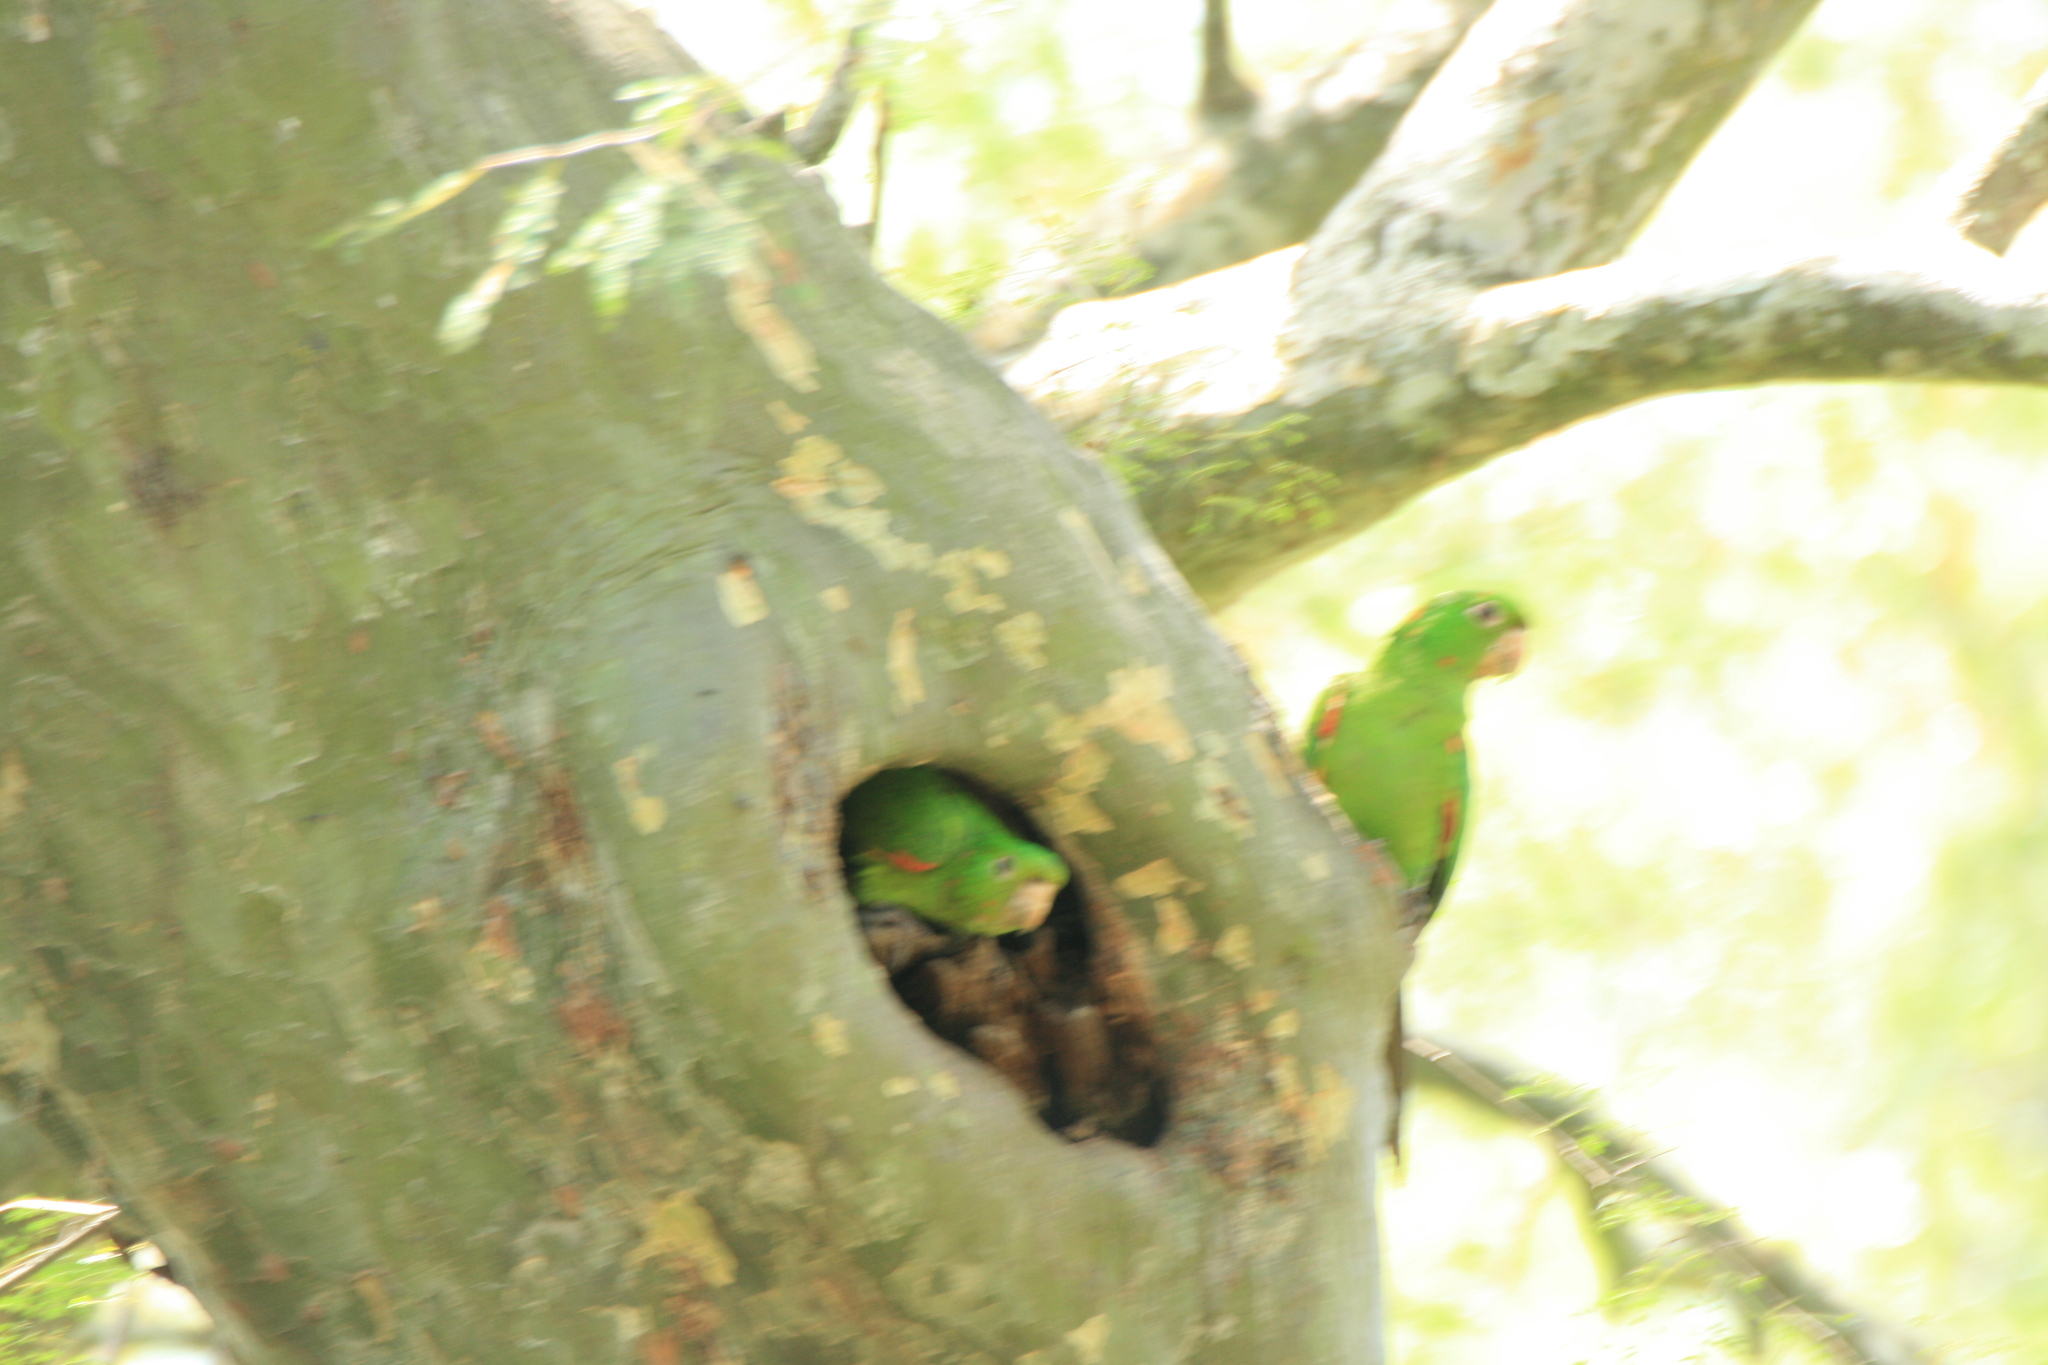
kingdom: Animalia
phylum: Chordata
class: Aves
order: Psittaciformes
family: Psittacidae
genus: Aratinga
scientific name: Aratinga leucophthalma
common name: White-eyed parakeet
